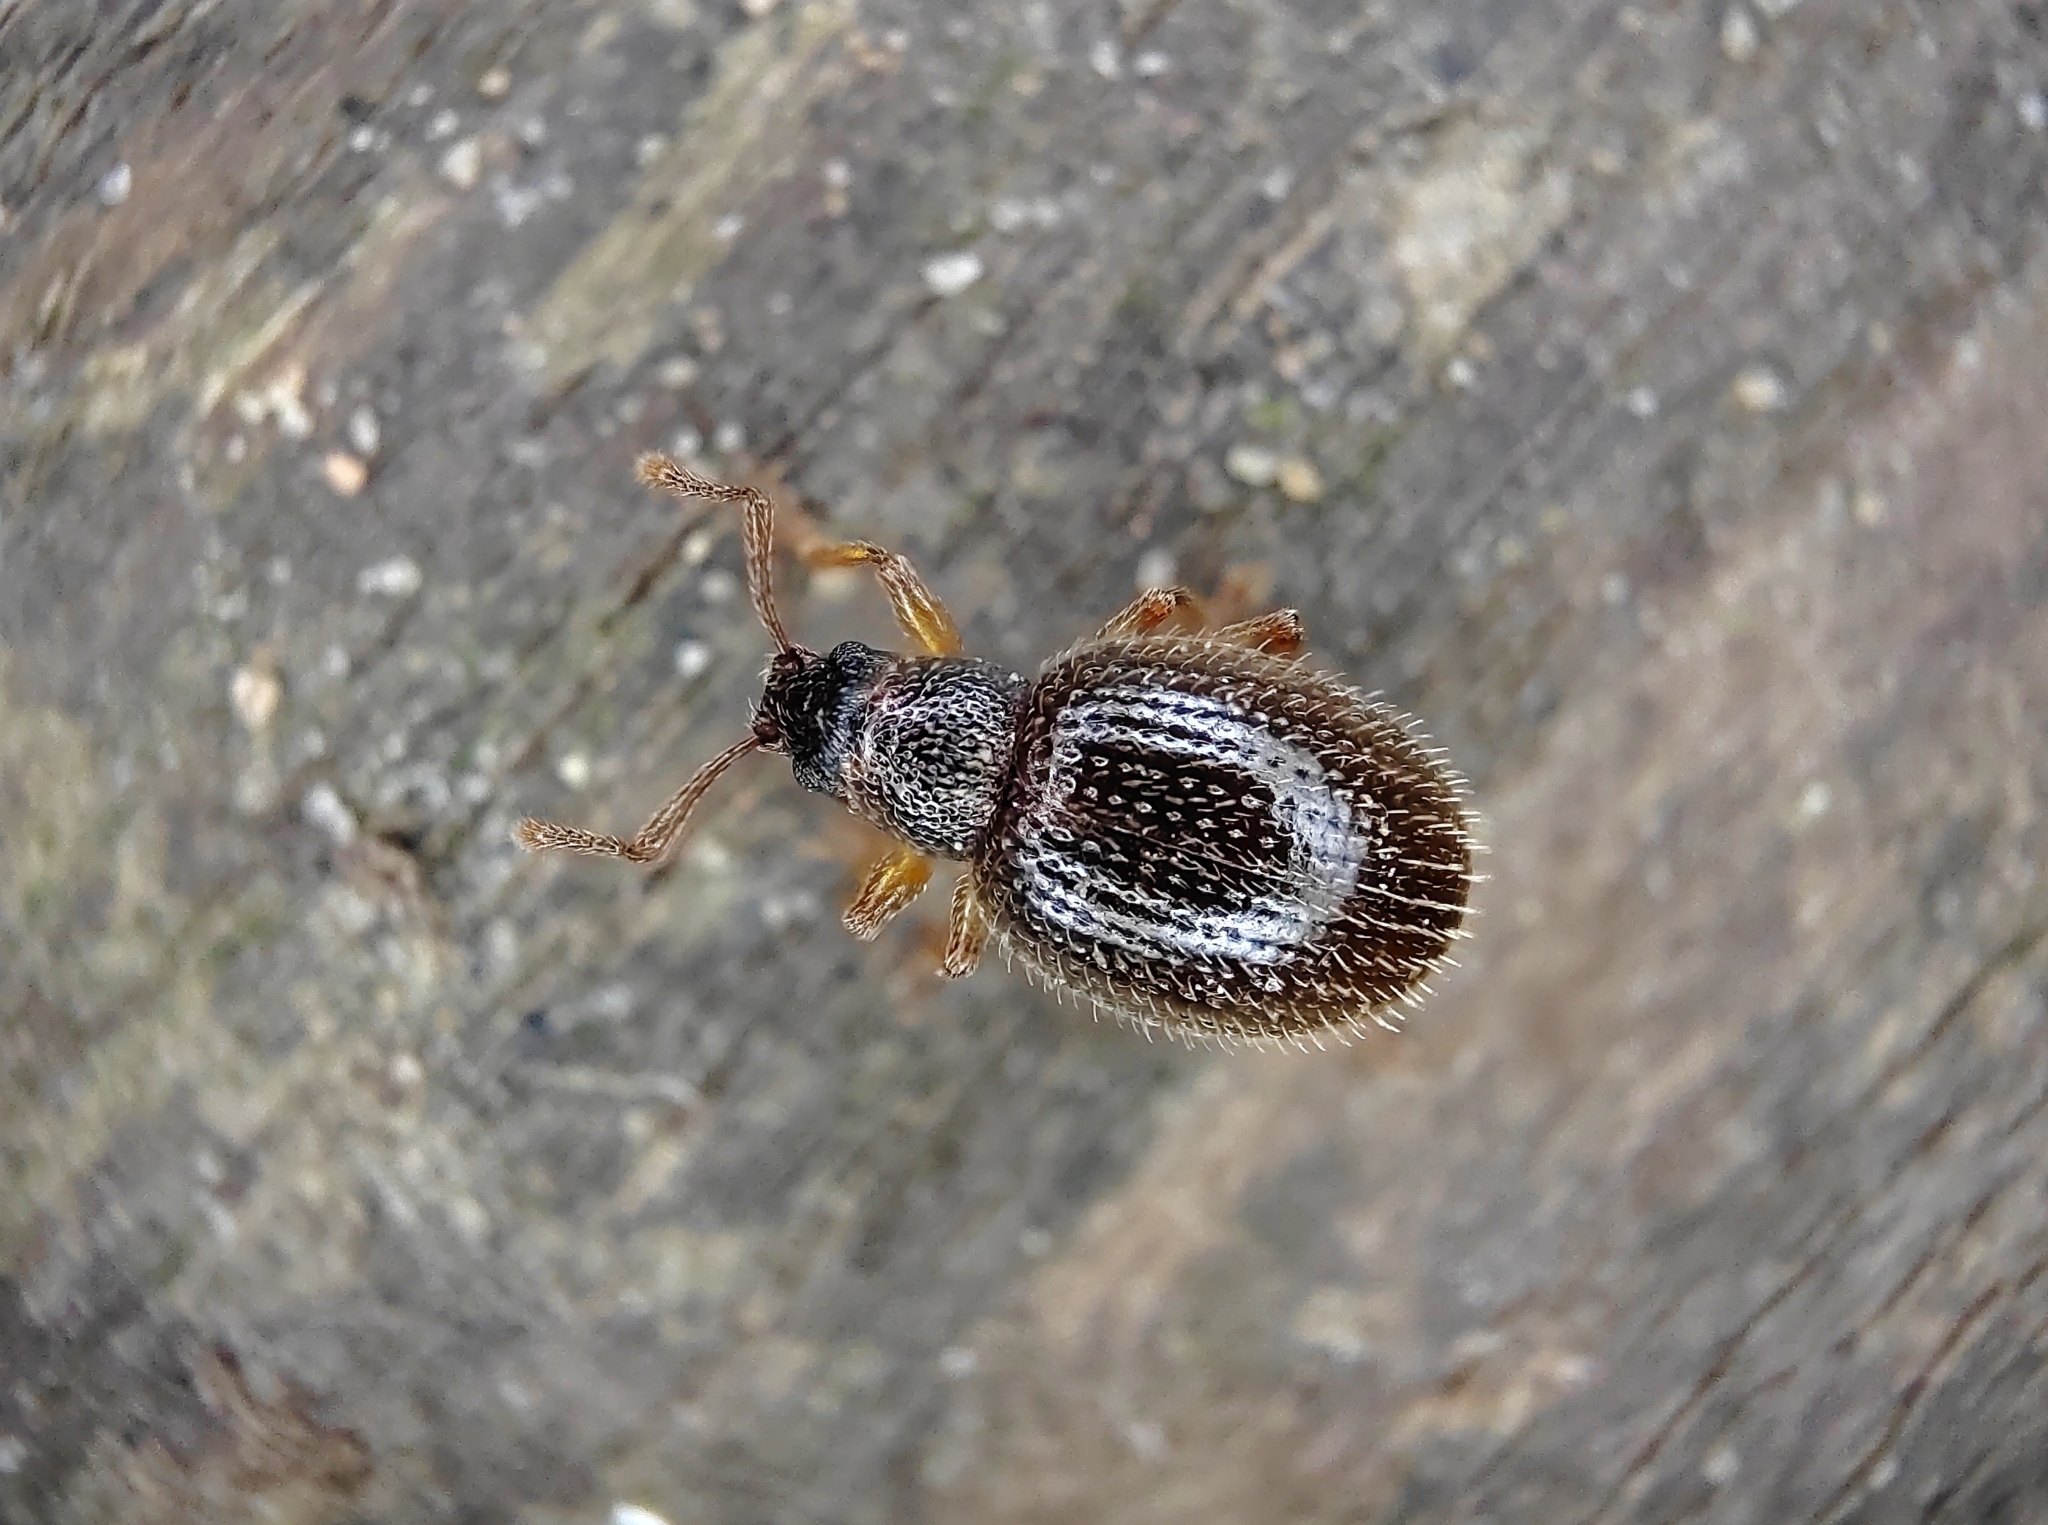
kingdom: Animalia
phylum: Arthropoda
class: Insecta
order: Coleoptera
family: Curculionidae
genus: Urometopus
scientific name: Urometopus
